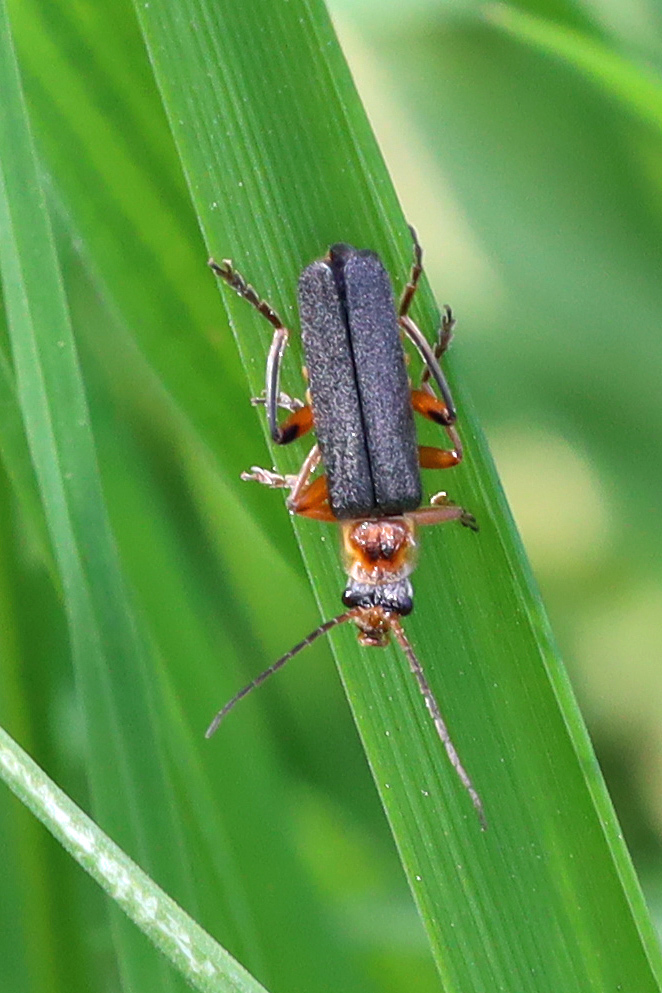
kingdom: Animalia
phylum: Arthropoda
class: Insecta
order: Coleoptera
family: Cantharidae
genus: Cantharis
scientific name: Cantharis nigricans
